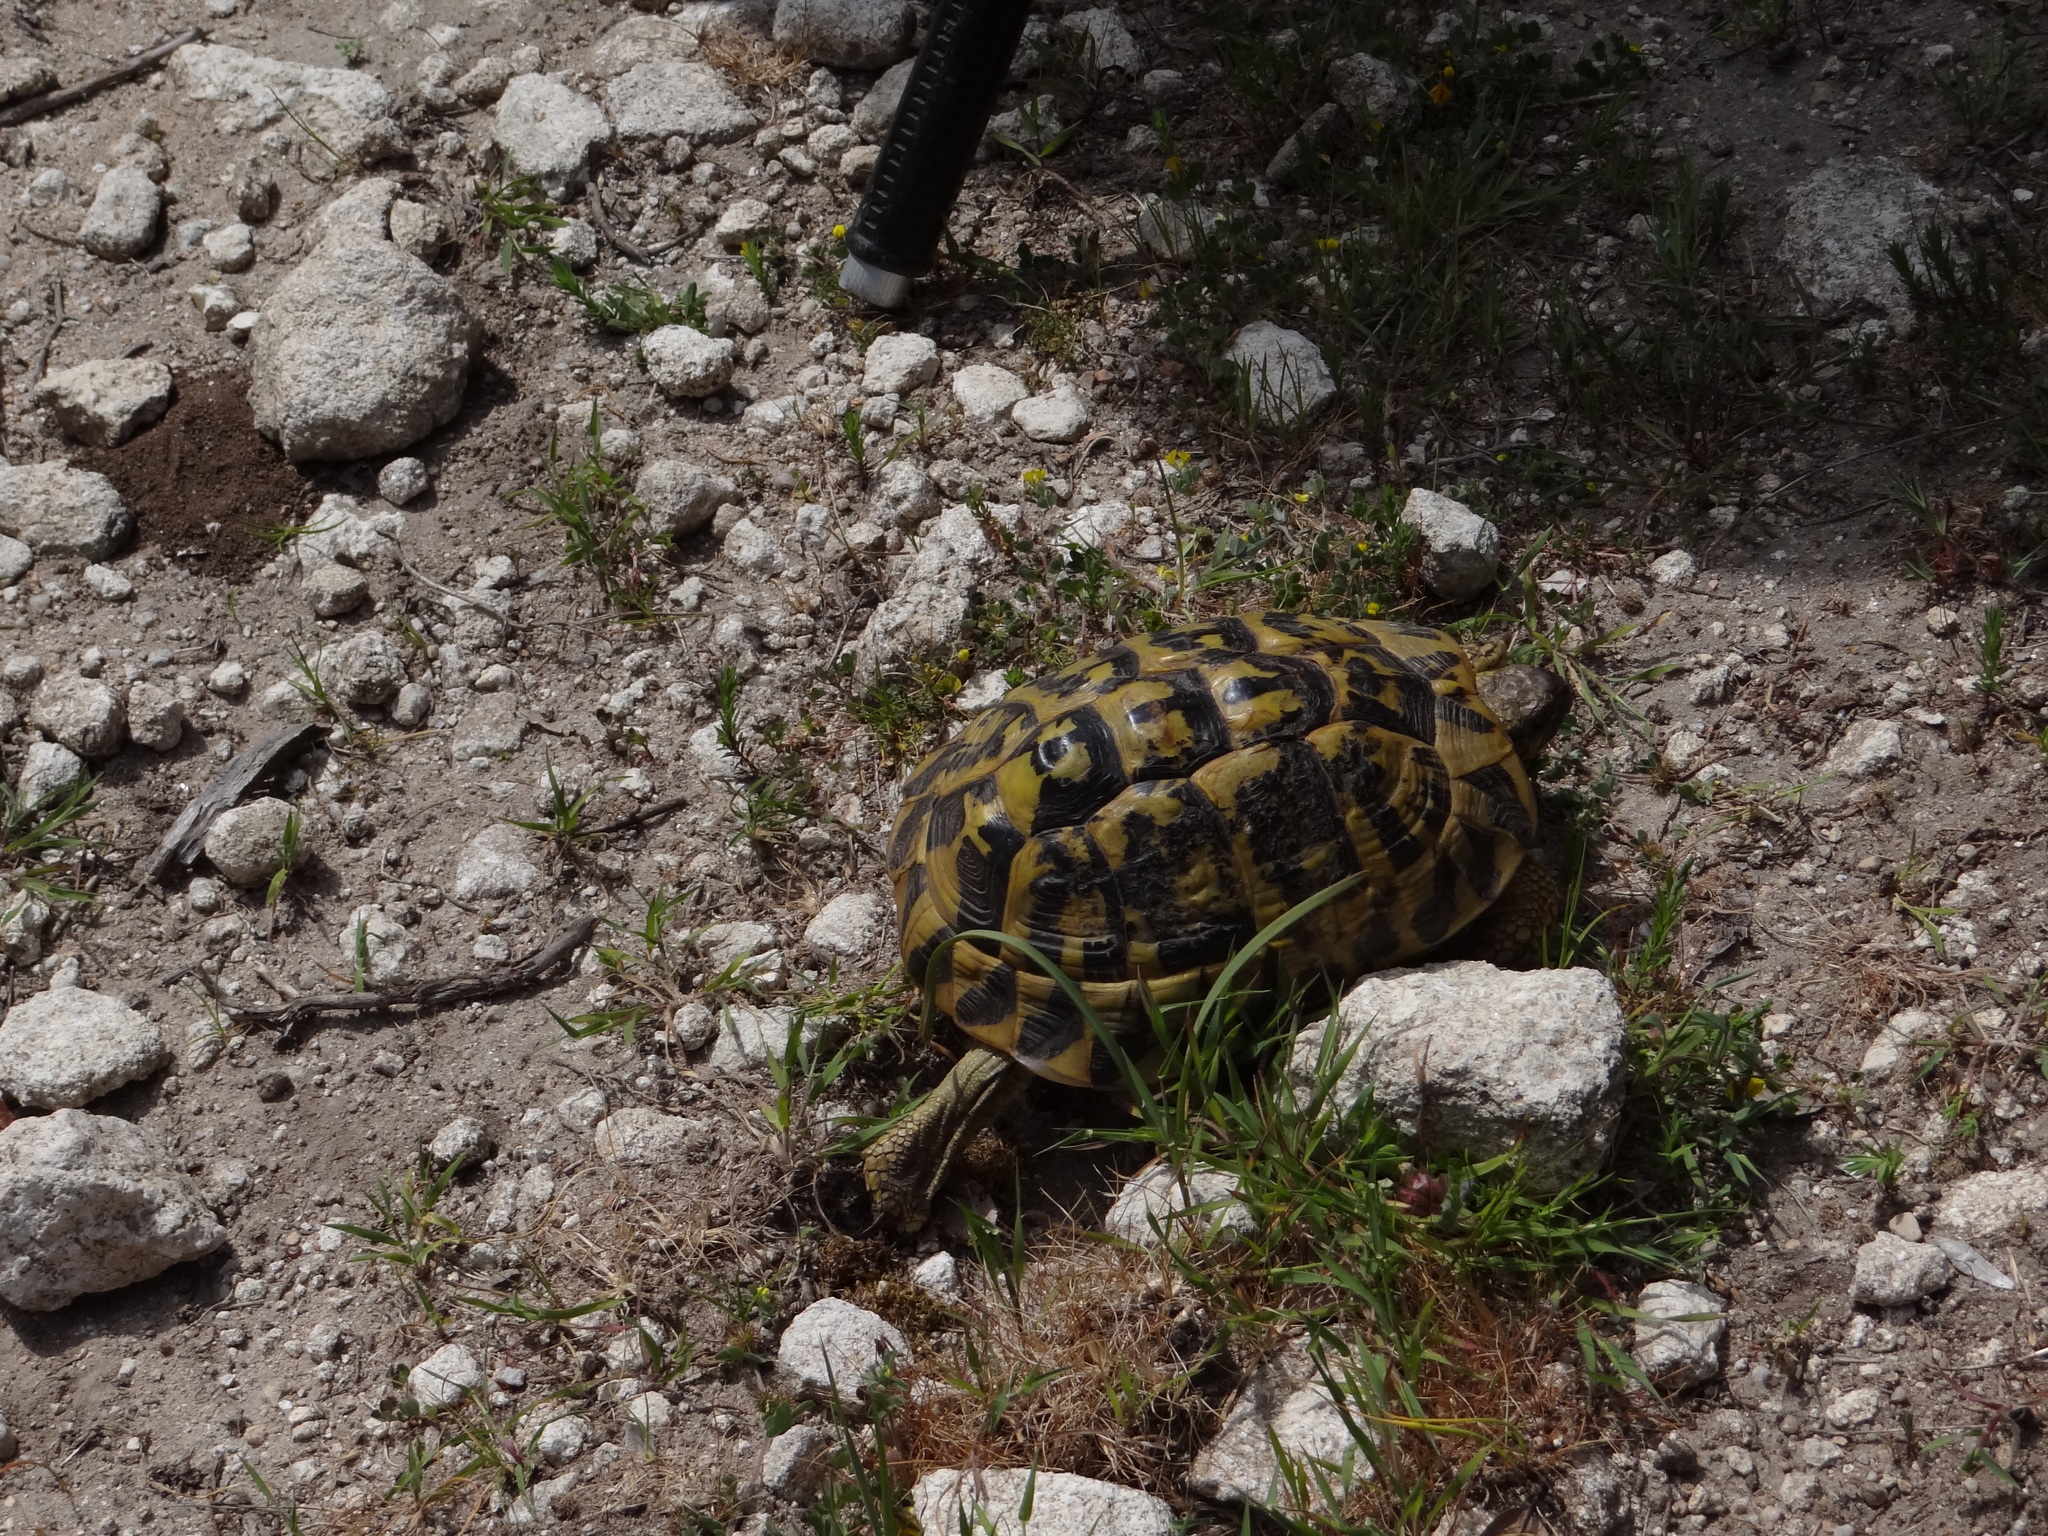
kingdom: Animalia
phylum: Chordata
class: Testudines
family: Testudinidae
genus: Testudo
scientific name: Testudo hermanni
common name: Hermann's tortoise
